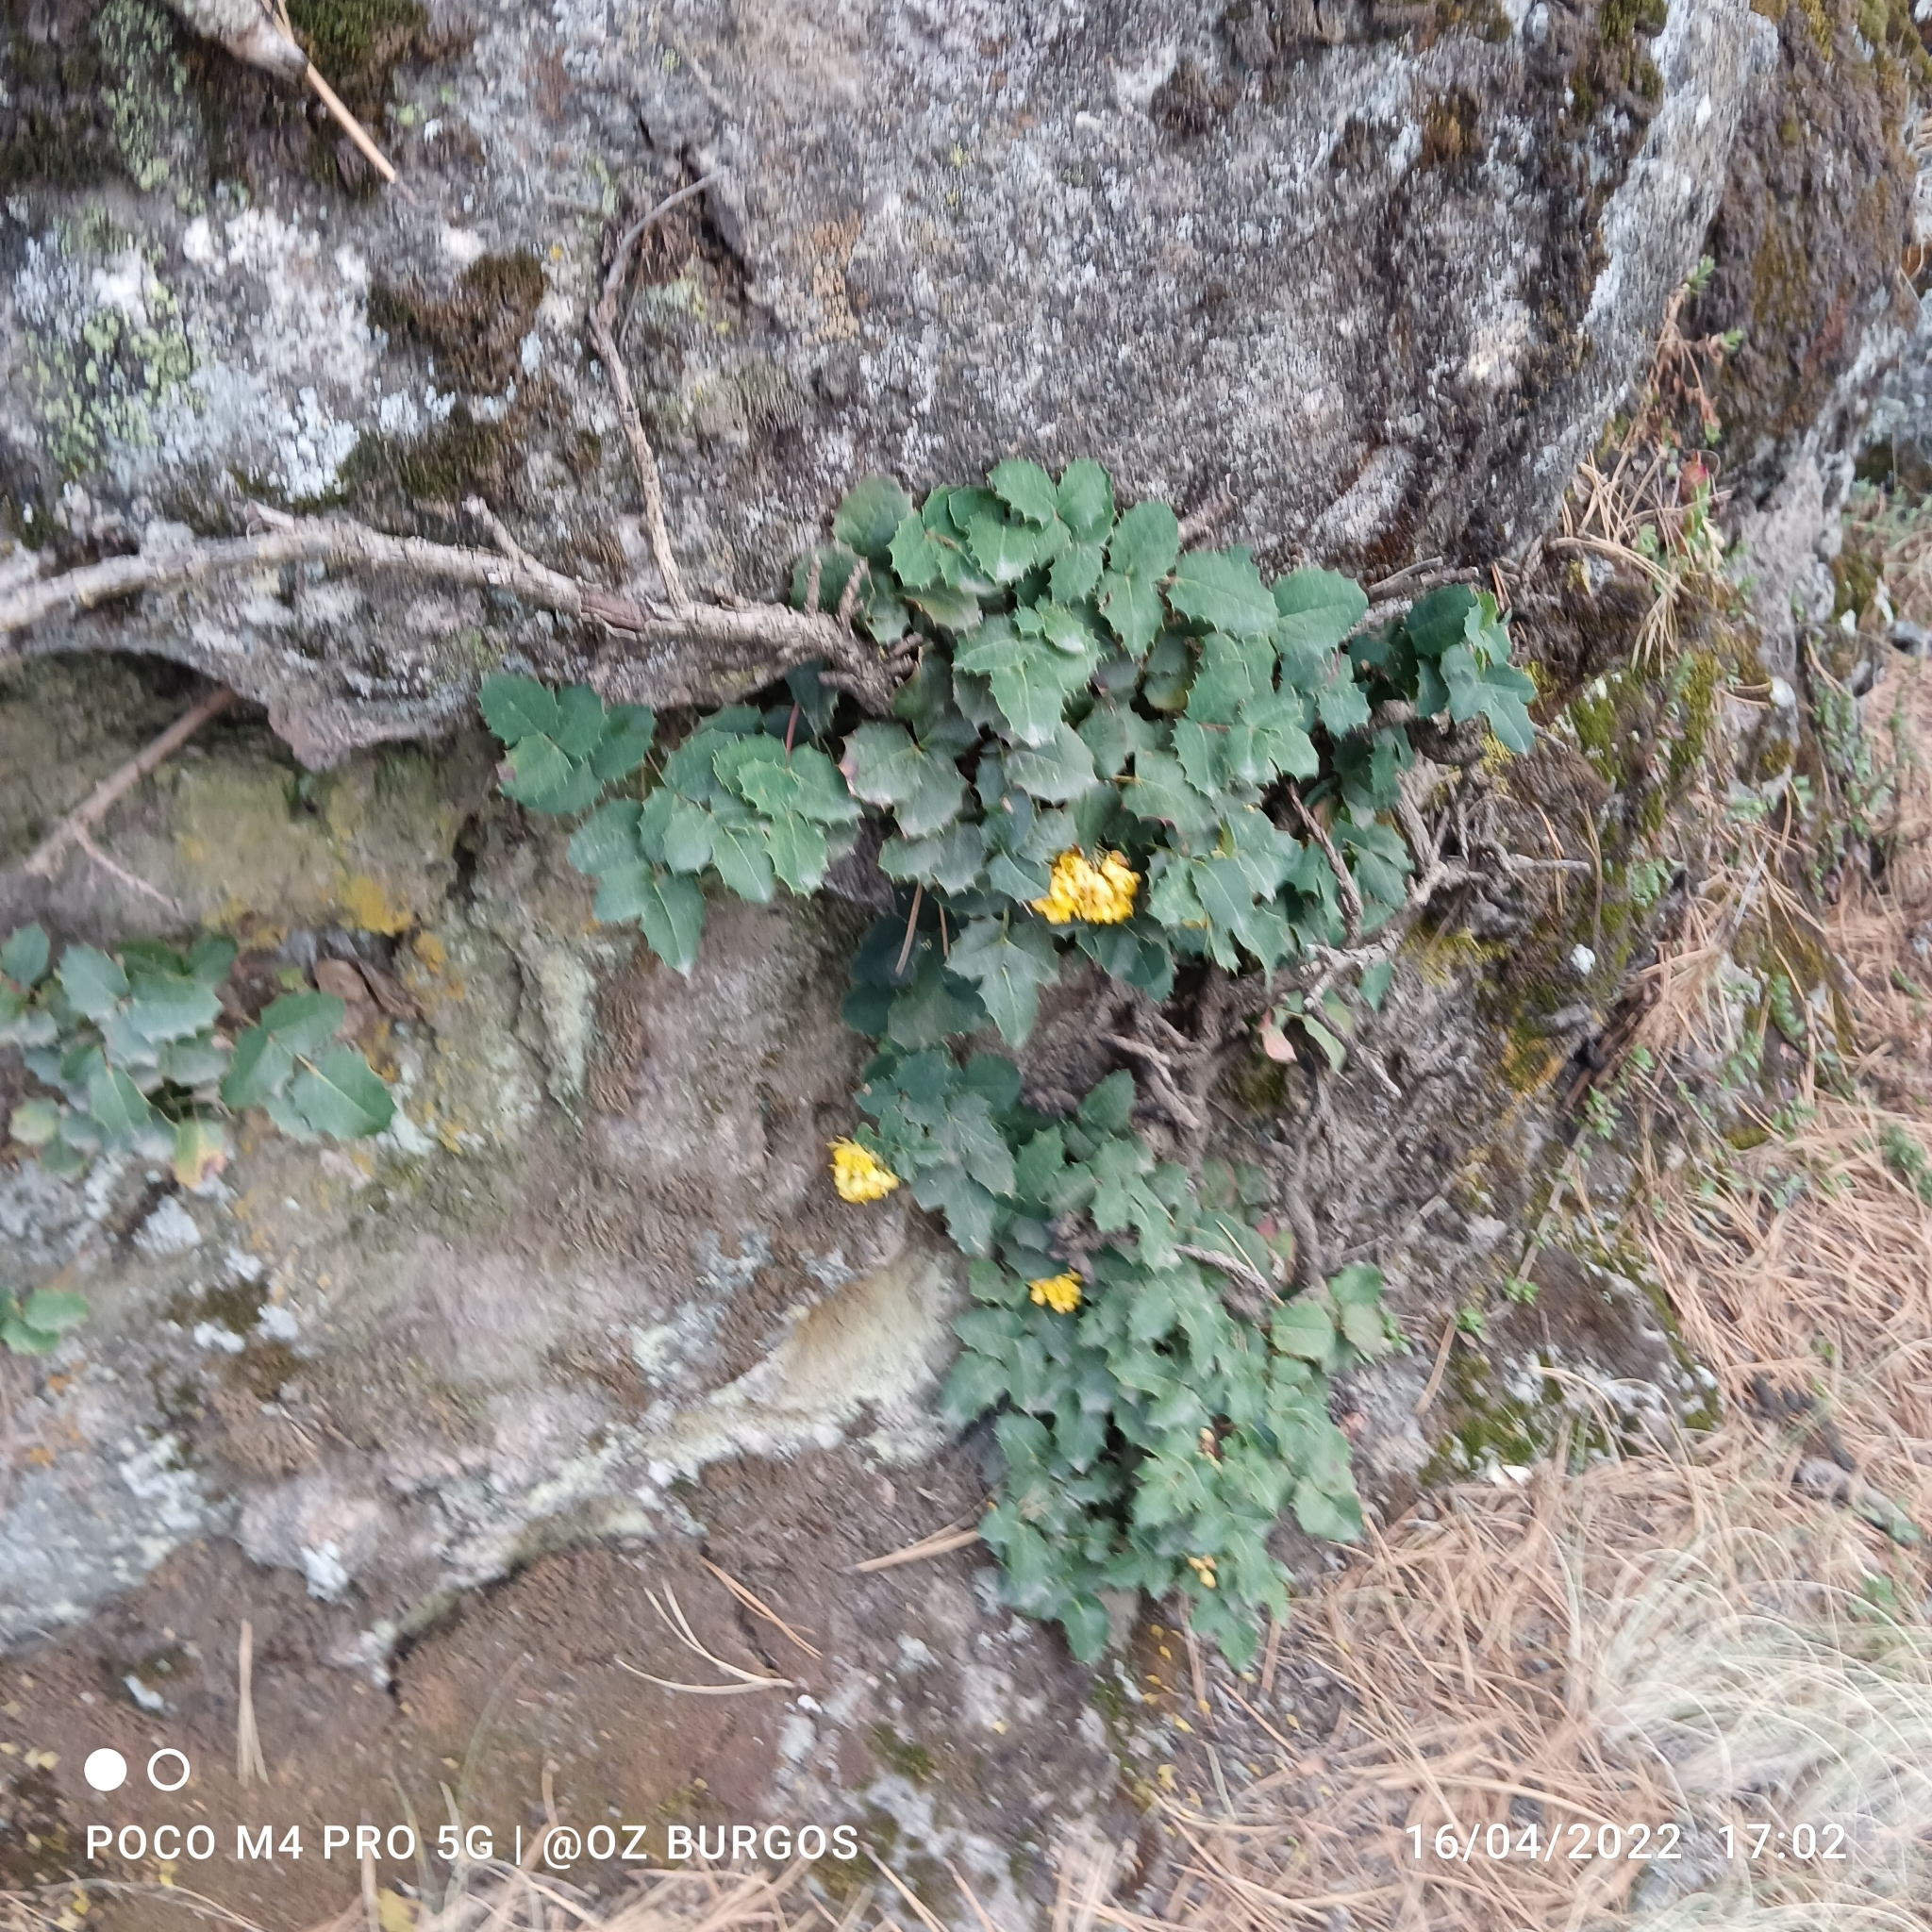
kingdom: Plantae
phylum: Tracheophyta
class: Magnoliopsida
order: Ranunculales
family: Berberidaceae
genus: Mahonia
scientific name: Mahonia alpina
